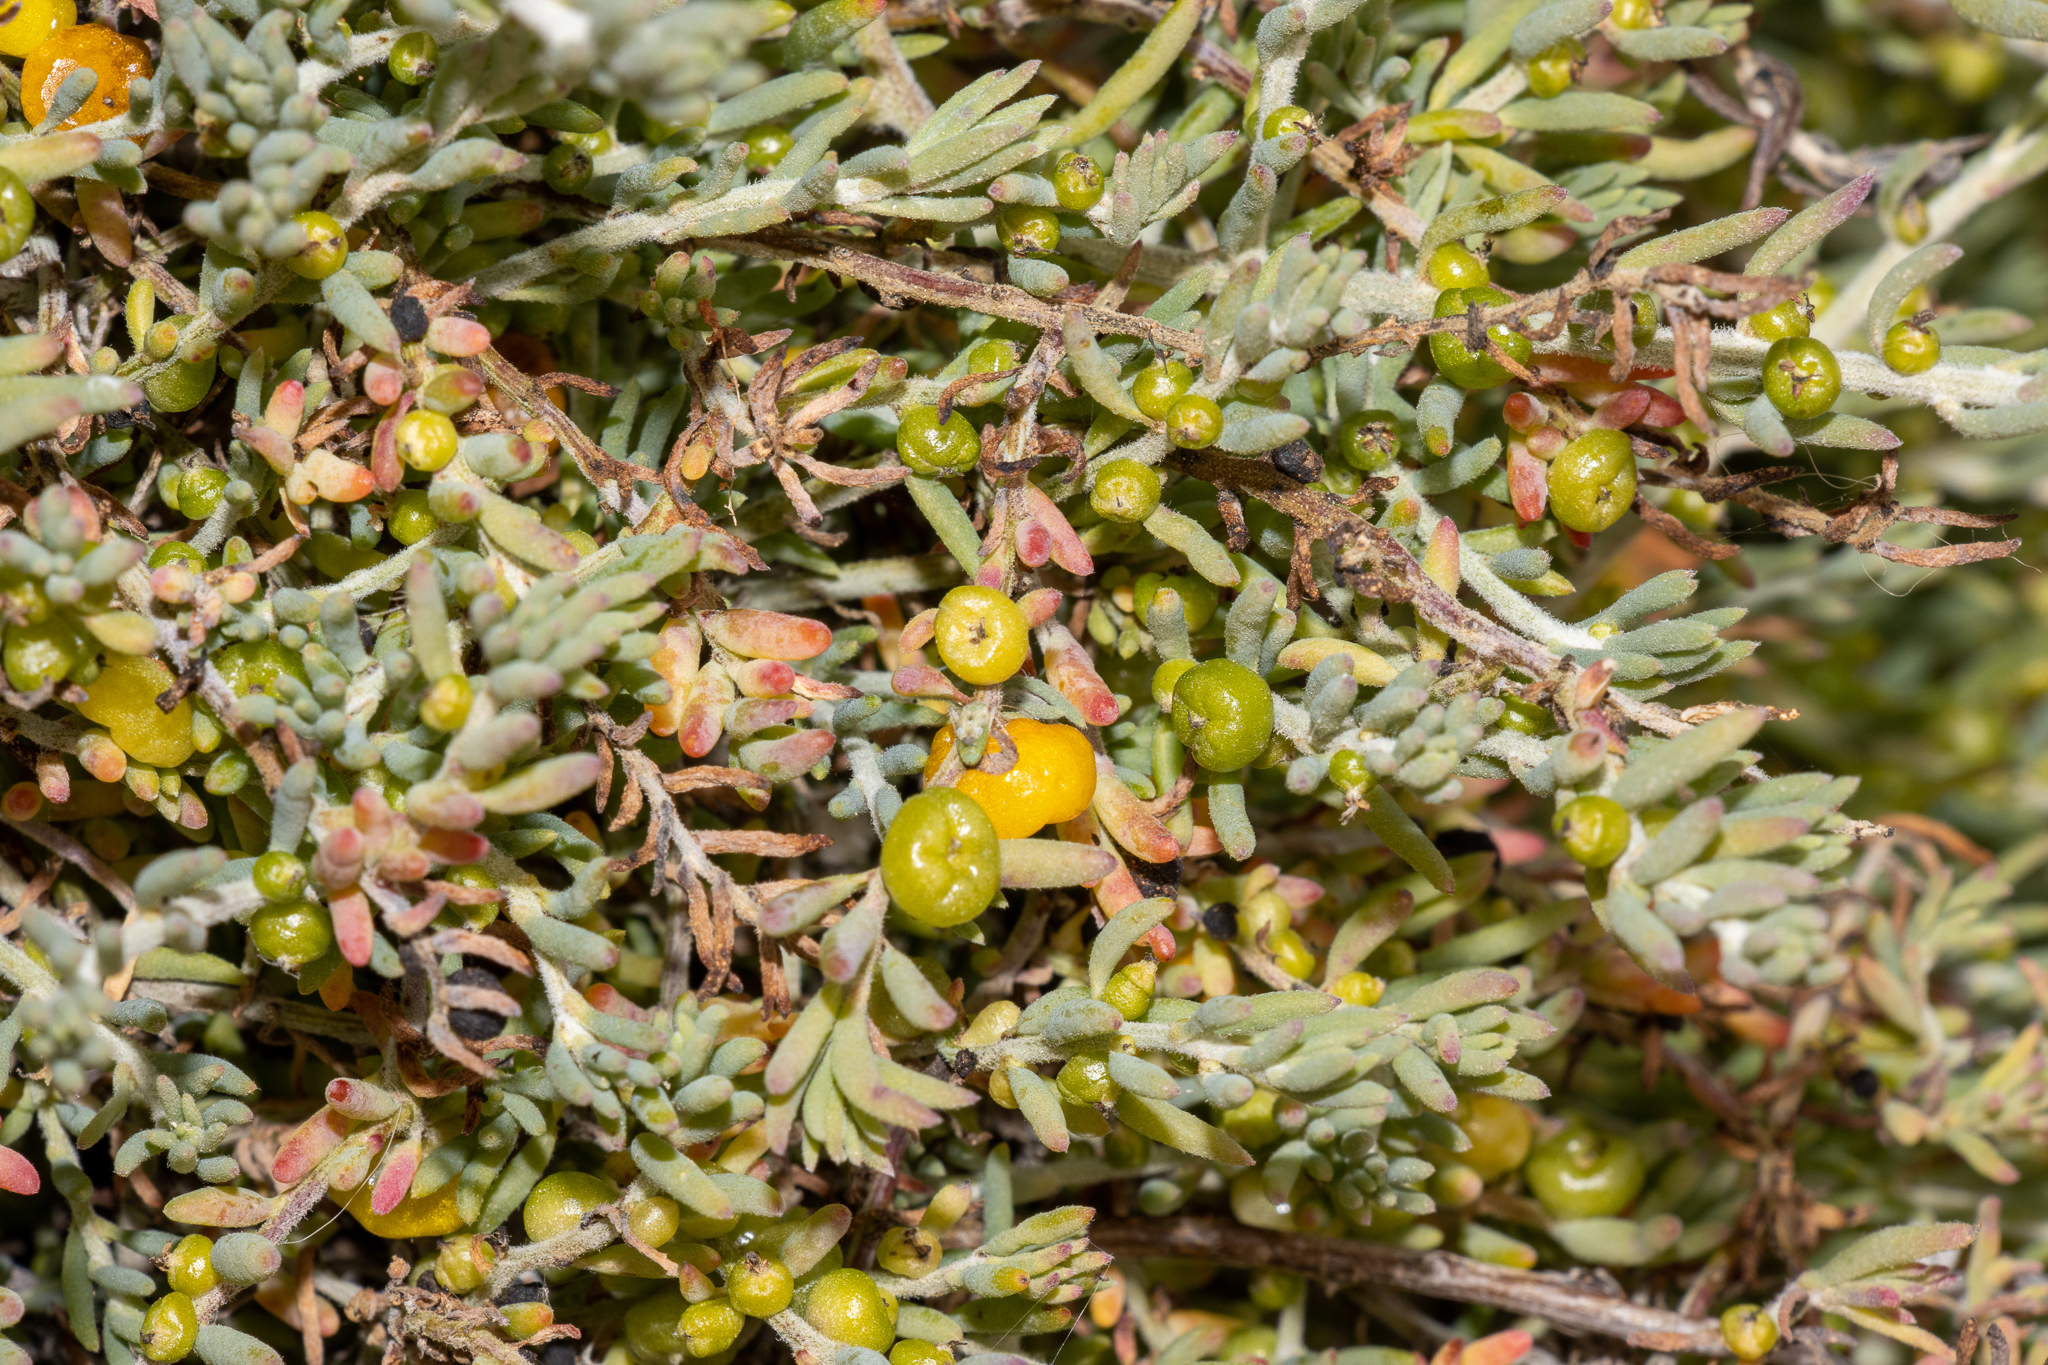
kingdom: Plantae
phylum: Tracheophyta
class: Magnoliopsida
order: Caryophyllales
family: Amaranthaceae
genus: Enchylaena
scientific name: Enchylaena tomentosa
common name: Ruby saltbush
